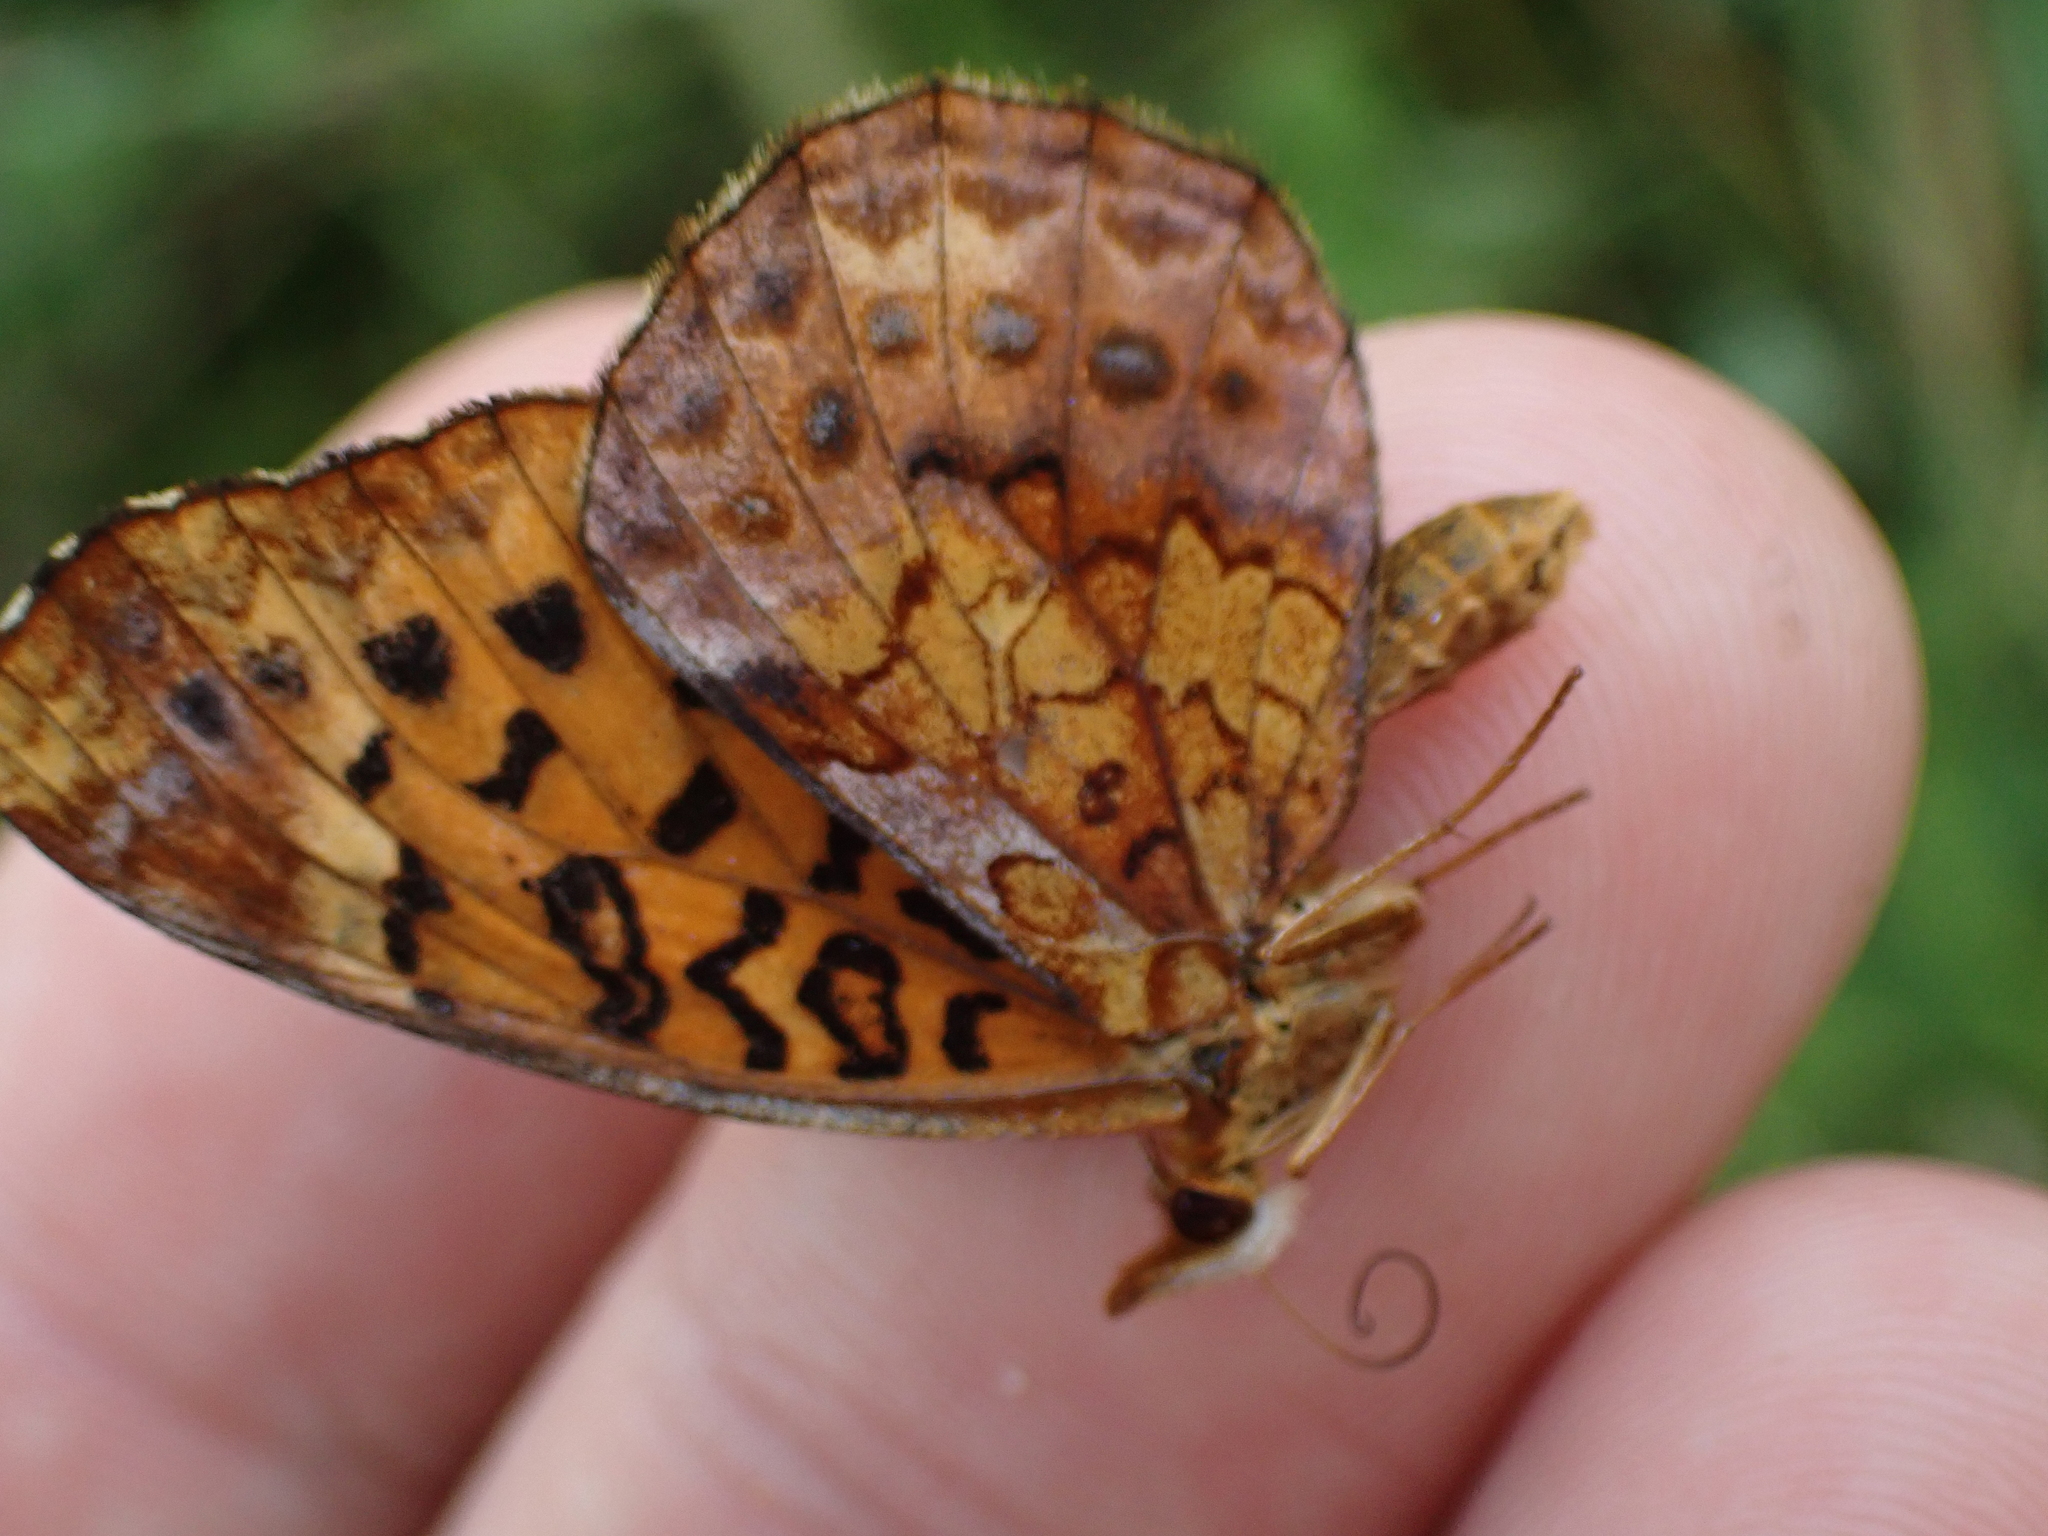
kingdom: Animalia
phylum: Arthropoda
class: Insecta
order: Lepidoptera
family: Nymphalidae
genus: Clossiana
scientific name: Clossiana toddi
